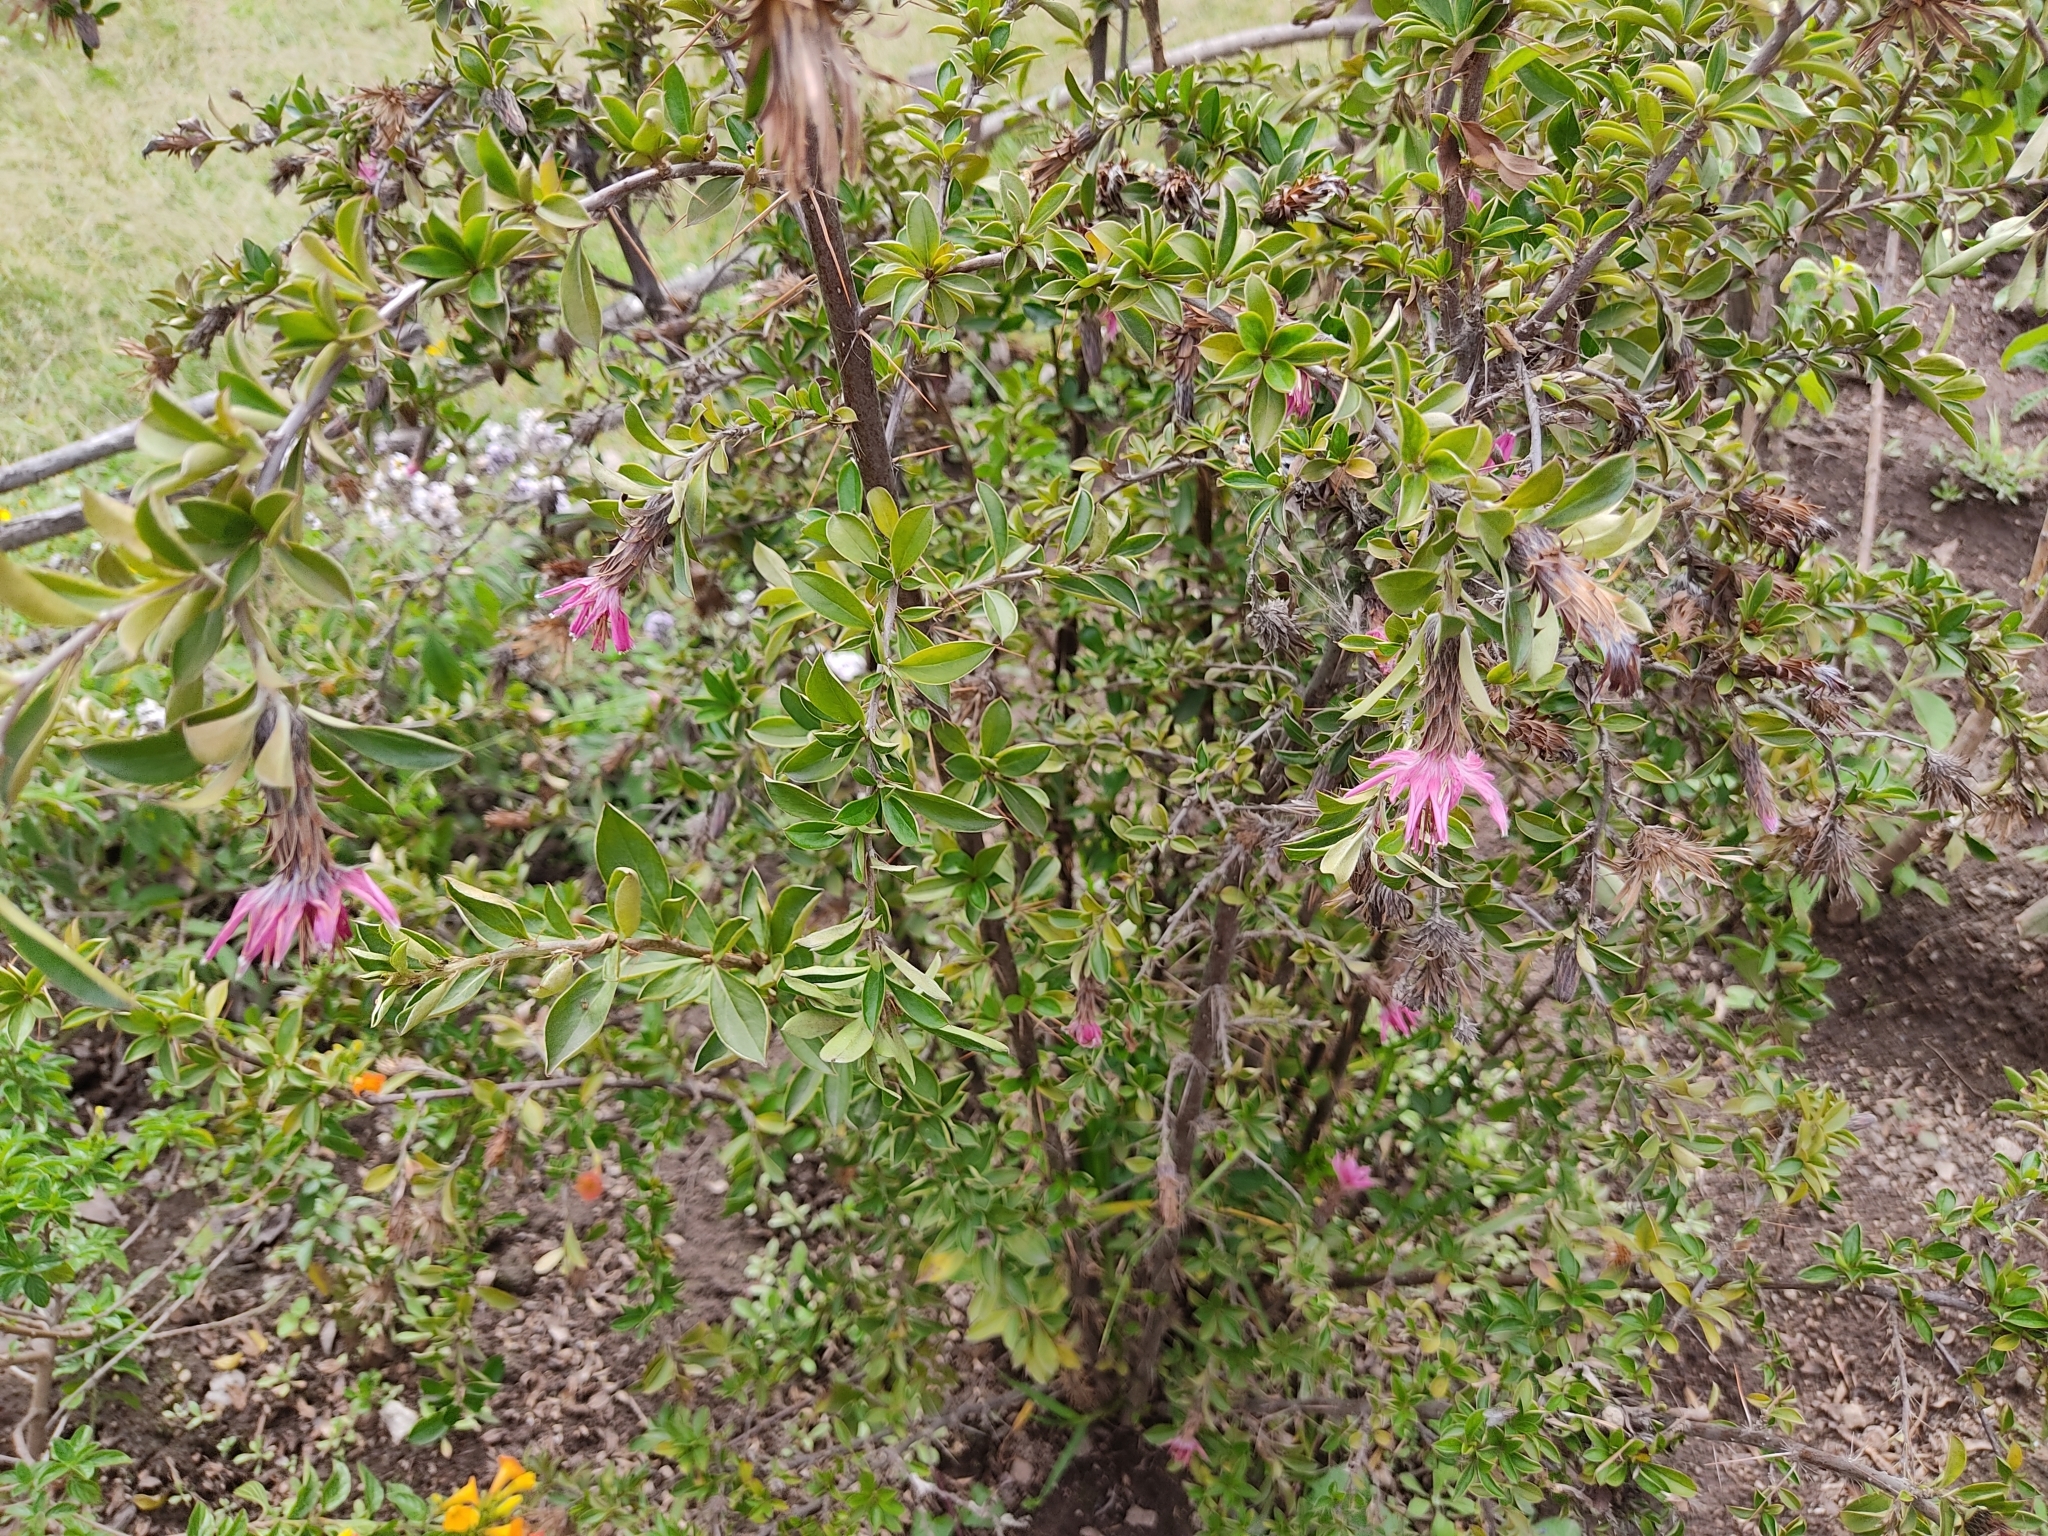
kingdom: Plantae
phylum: Tracheophyta
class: Magnoliopsida
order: Asterales
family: Asteraceae
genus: Barnadesia
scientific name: Barnadesia arborea
